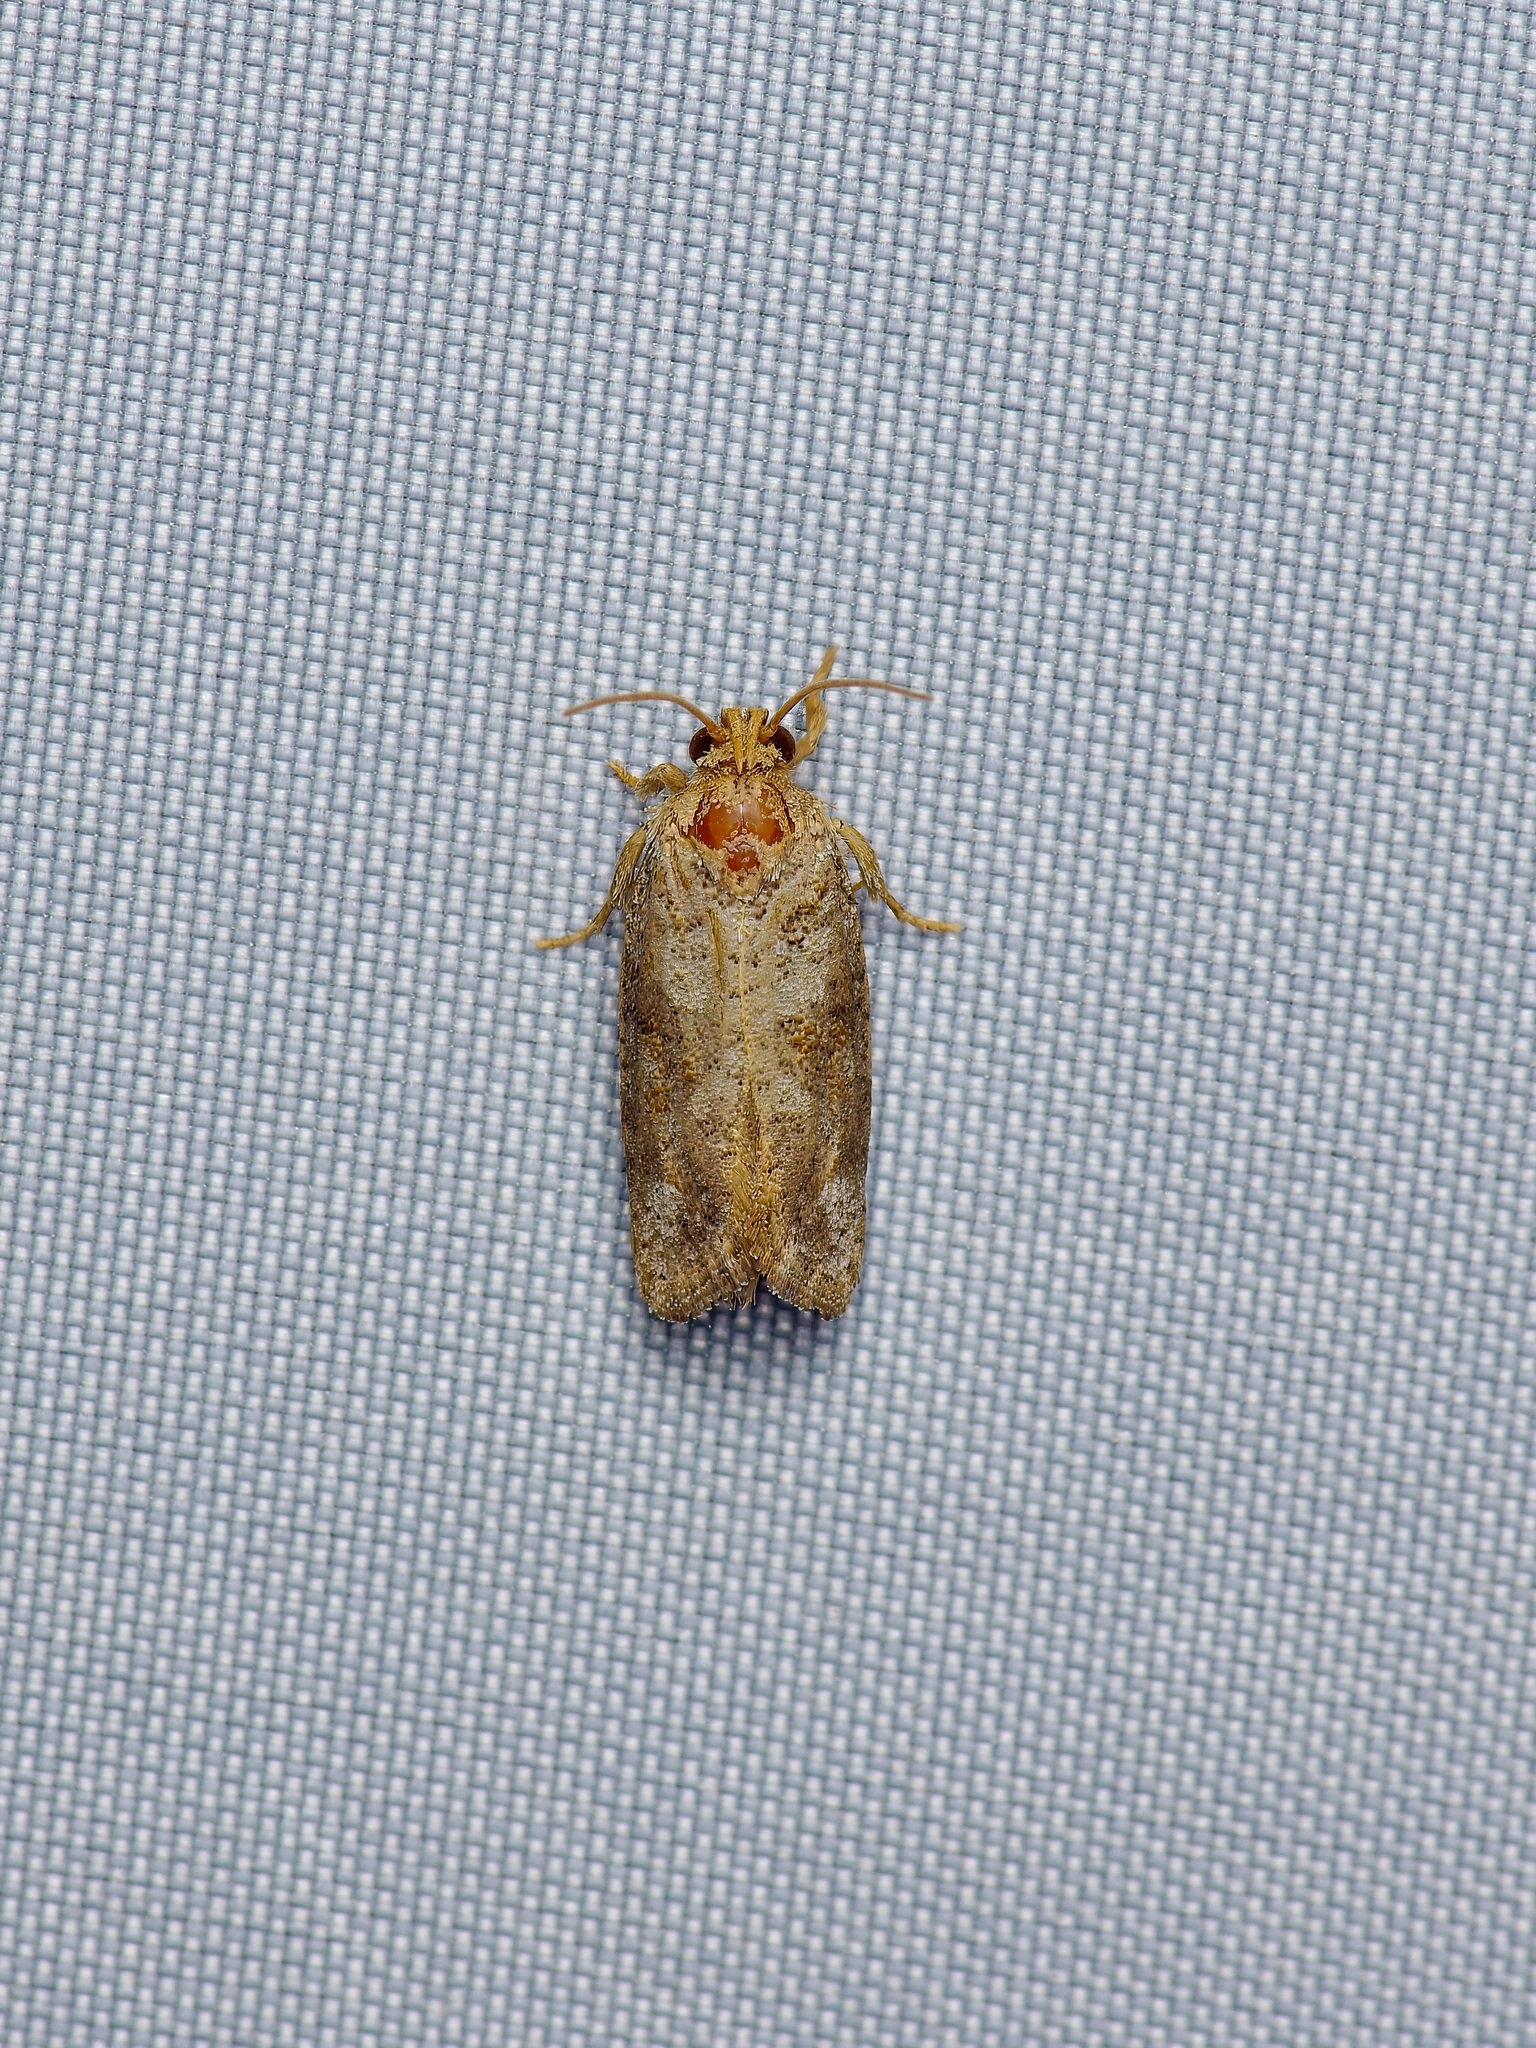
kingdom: Animalia
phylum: Arthropoda
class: Insecta
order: Lepidoptera
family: Tineidae
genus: Acrolophus
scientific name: Acrolophus piger
